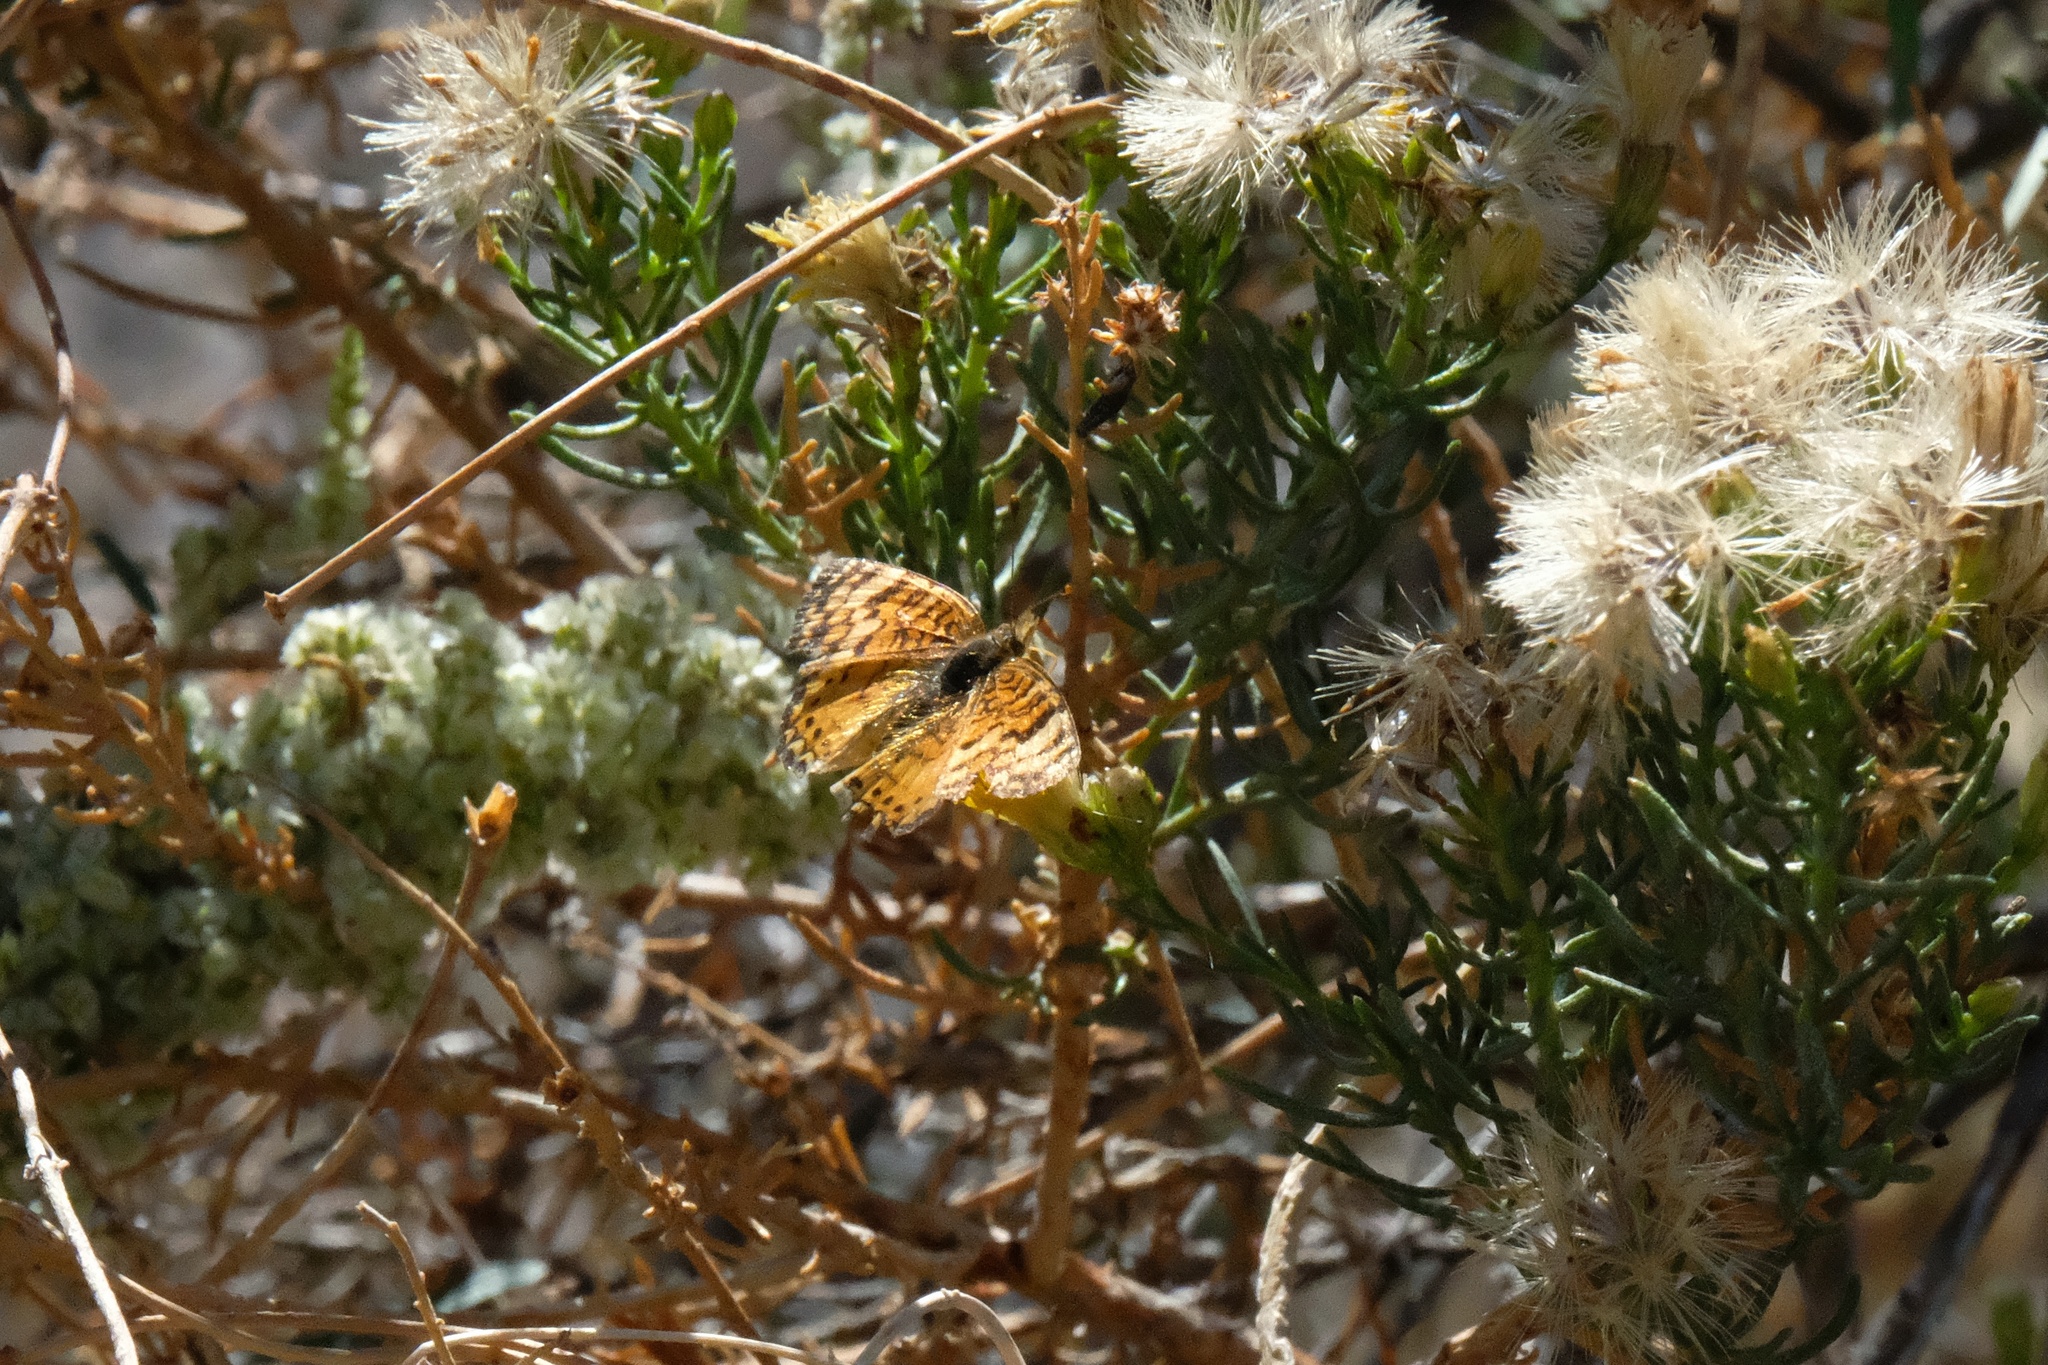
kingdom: Animalia
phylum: Arthropoda
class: Insecta
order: Lepidoptera
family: Nymphalidae
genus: Eresia
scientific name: Eresia aveyrona
